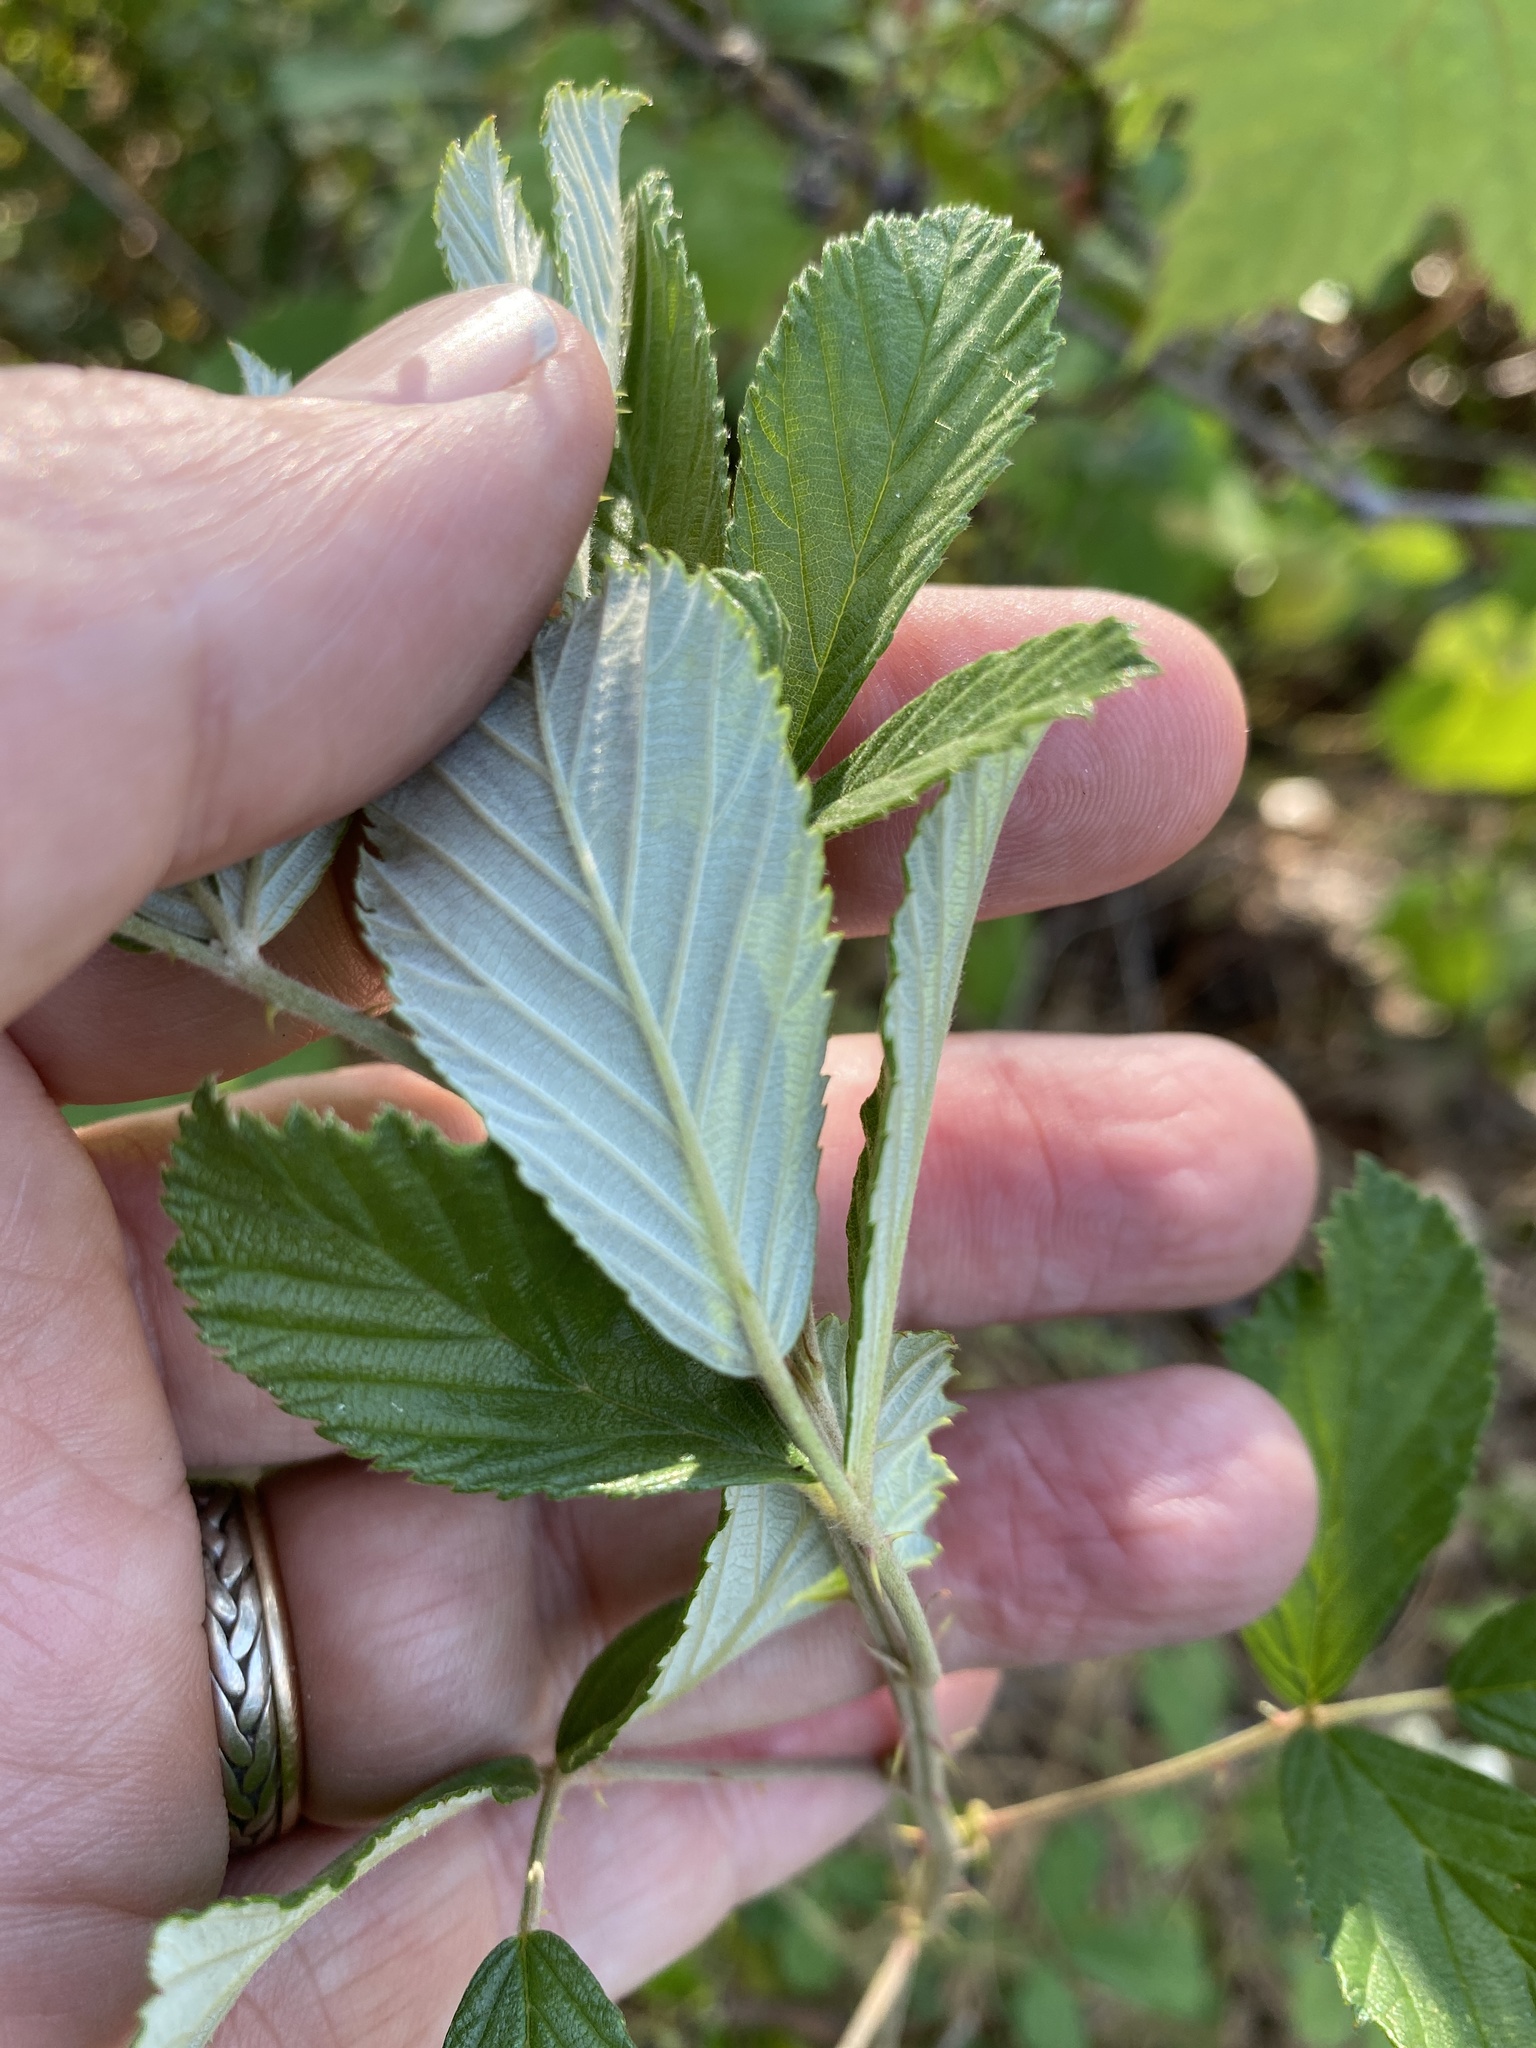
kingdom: Plantae
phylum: Tracheophyta
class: Magnoliopsida
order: Rosales
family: Rosaceae
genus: Rubus
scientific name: Rubus cuneifolius
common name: American bramble
